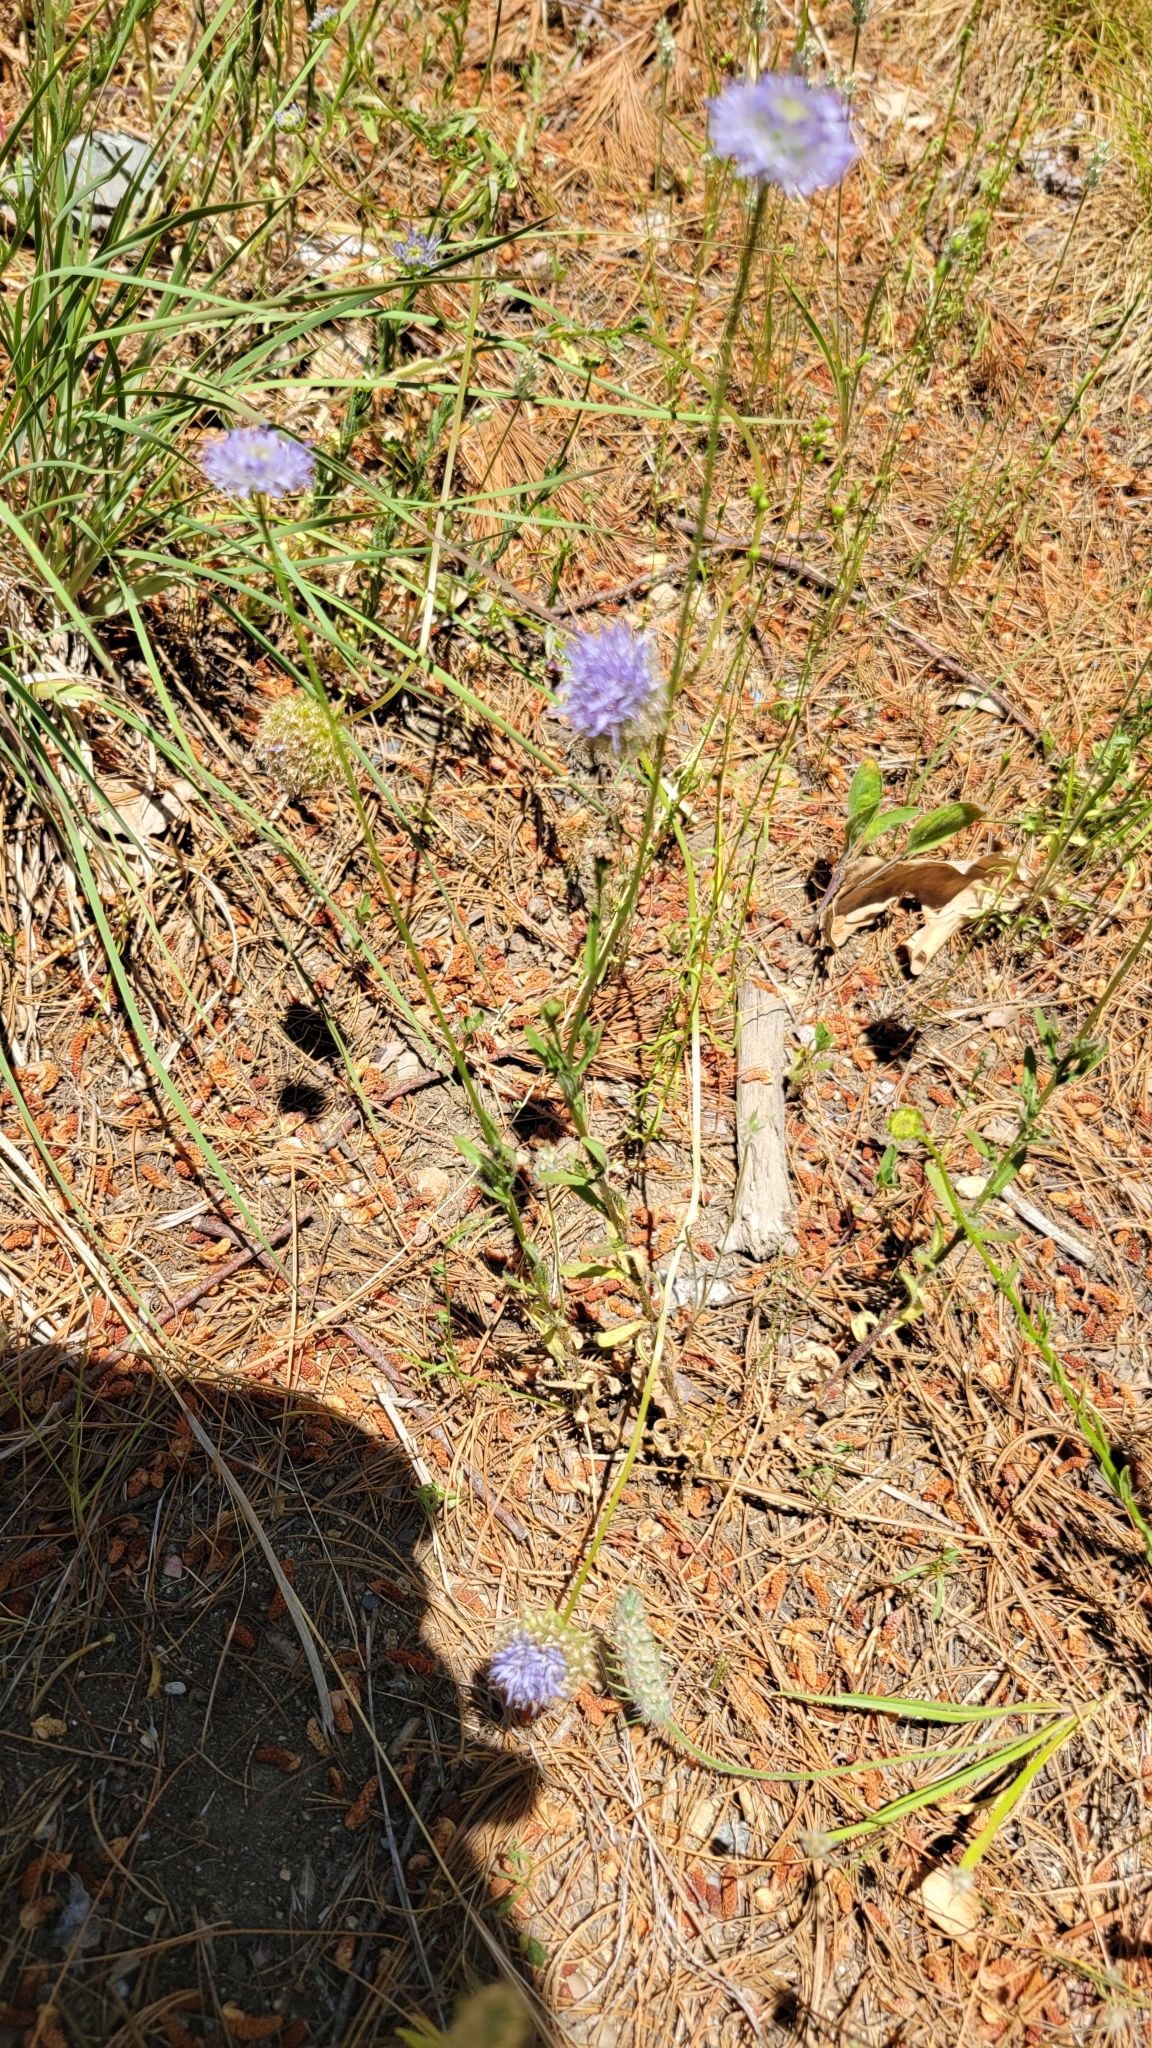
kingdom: Plantae
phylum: Tracheophyta
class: Magnoliopsida
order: Asterales
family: Campanulaceae
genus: Jasione
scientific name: Jasione montana
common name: Sheep's-bit
